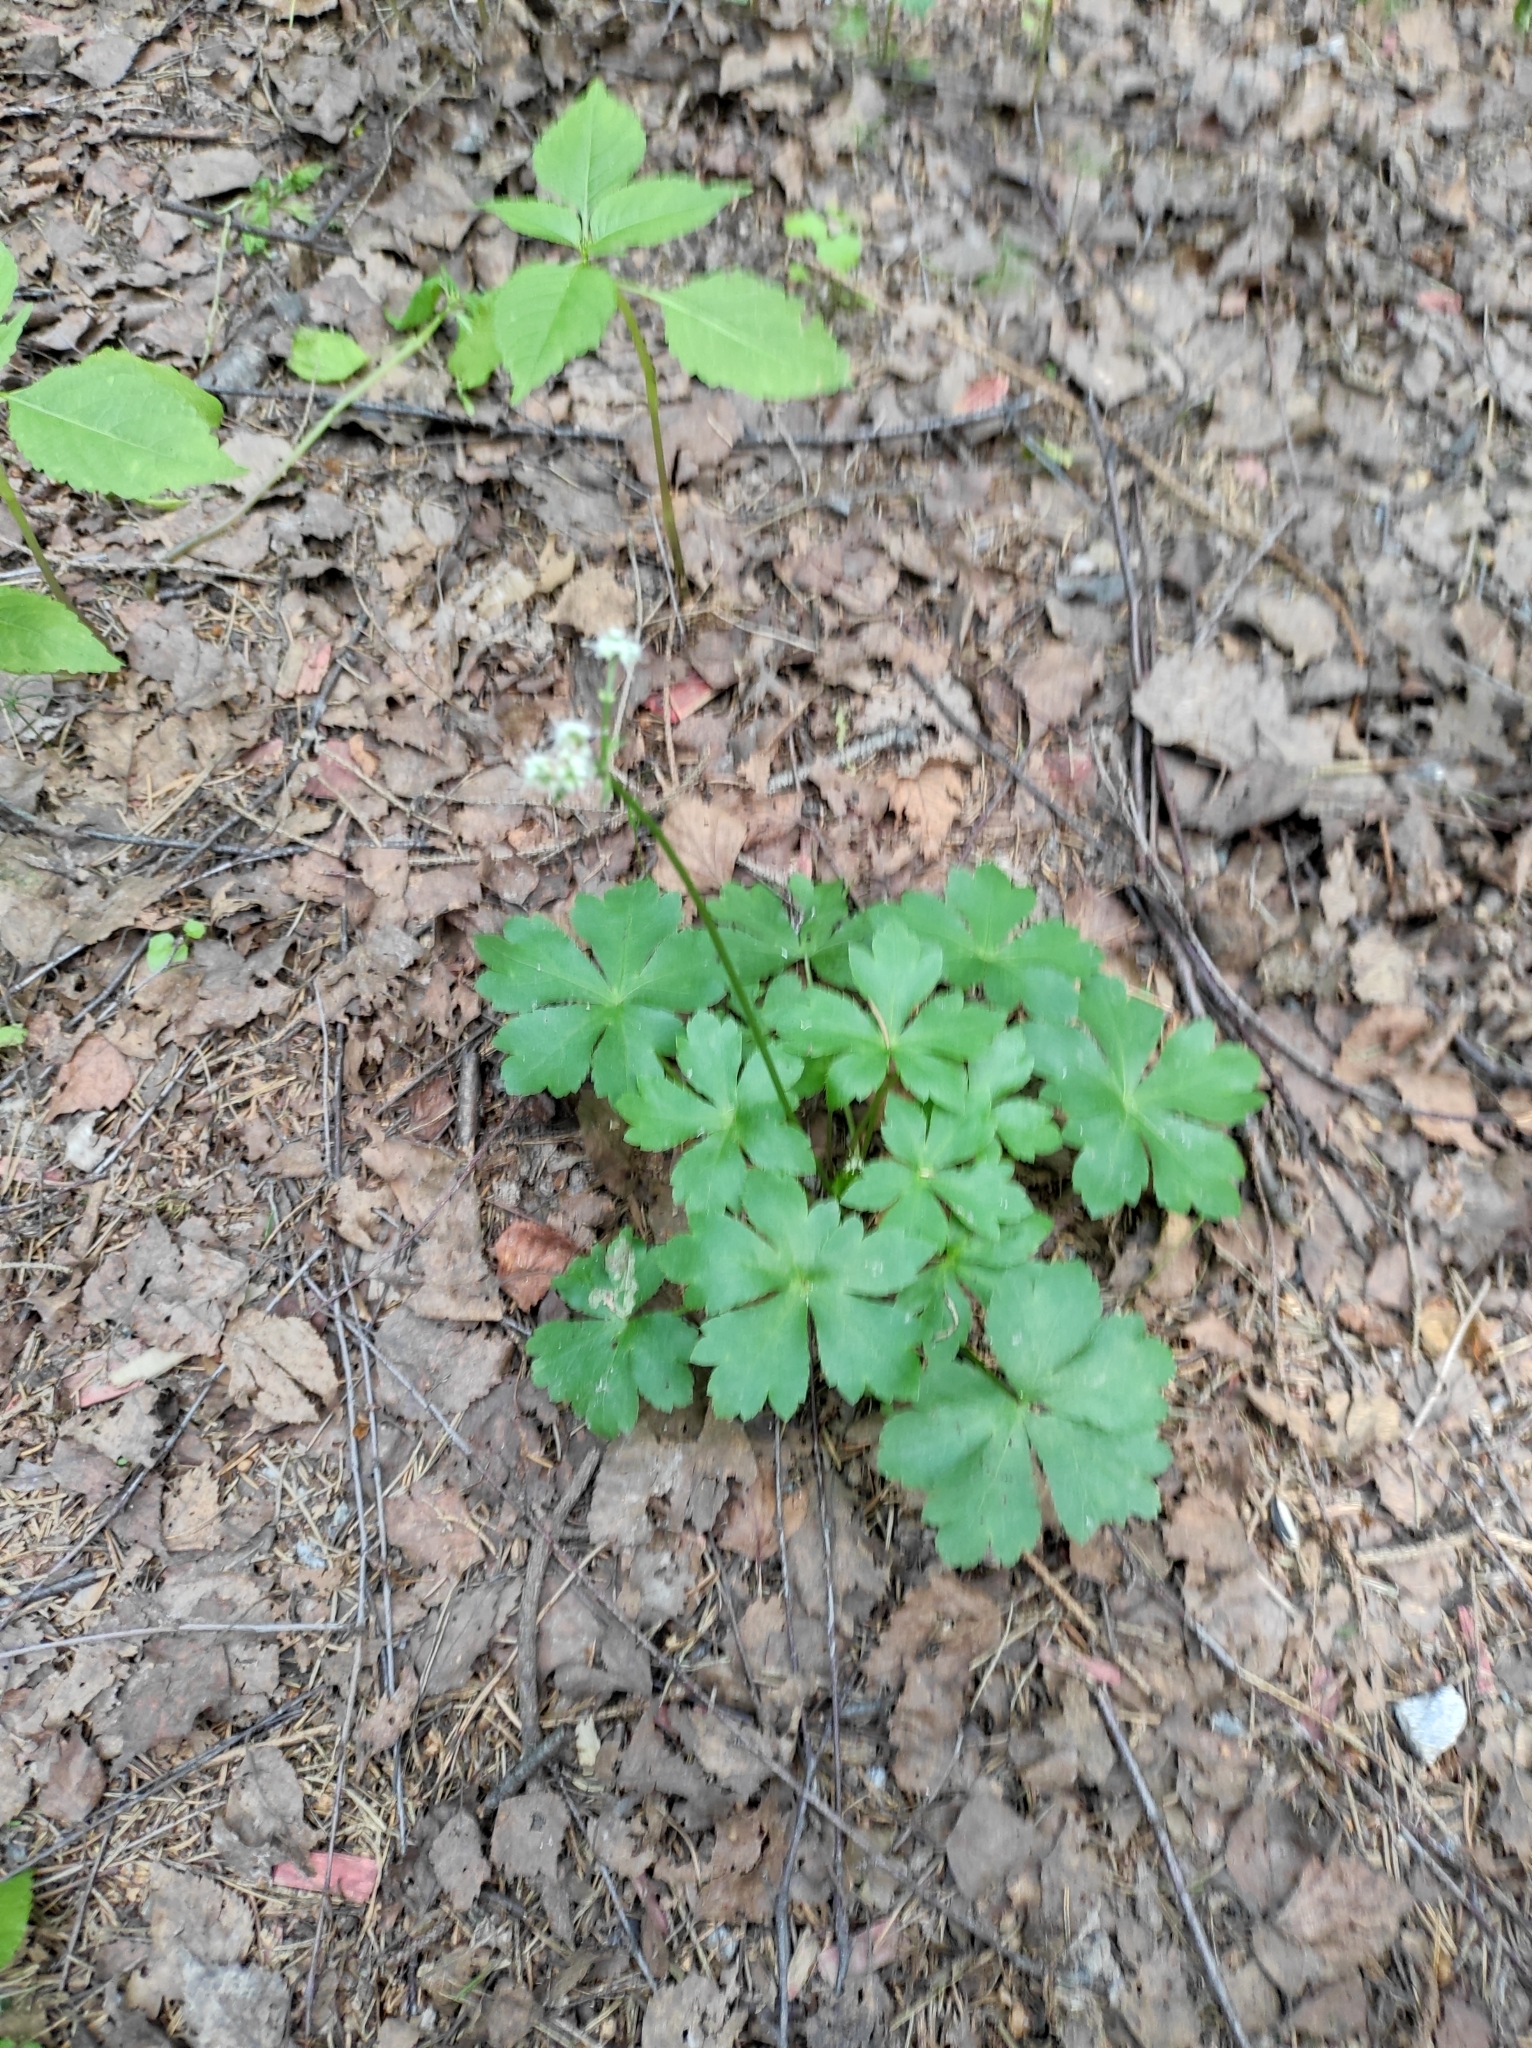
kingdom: Plantae
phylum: Tracheophyta
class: Magnoliopsida
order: Apiales
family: Apiaceae
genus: Sanicula
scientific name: Sanicula europaea
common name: Sanicle
